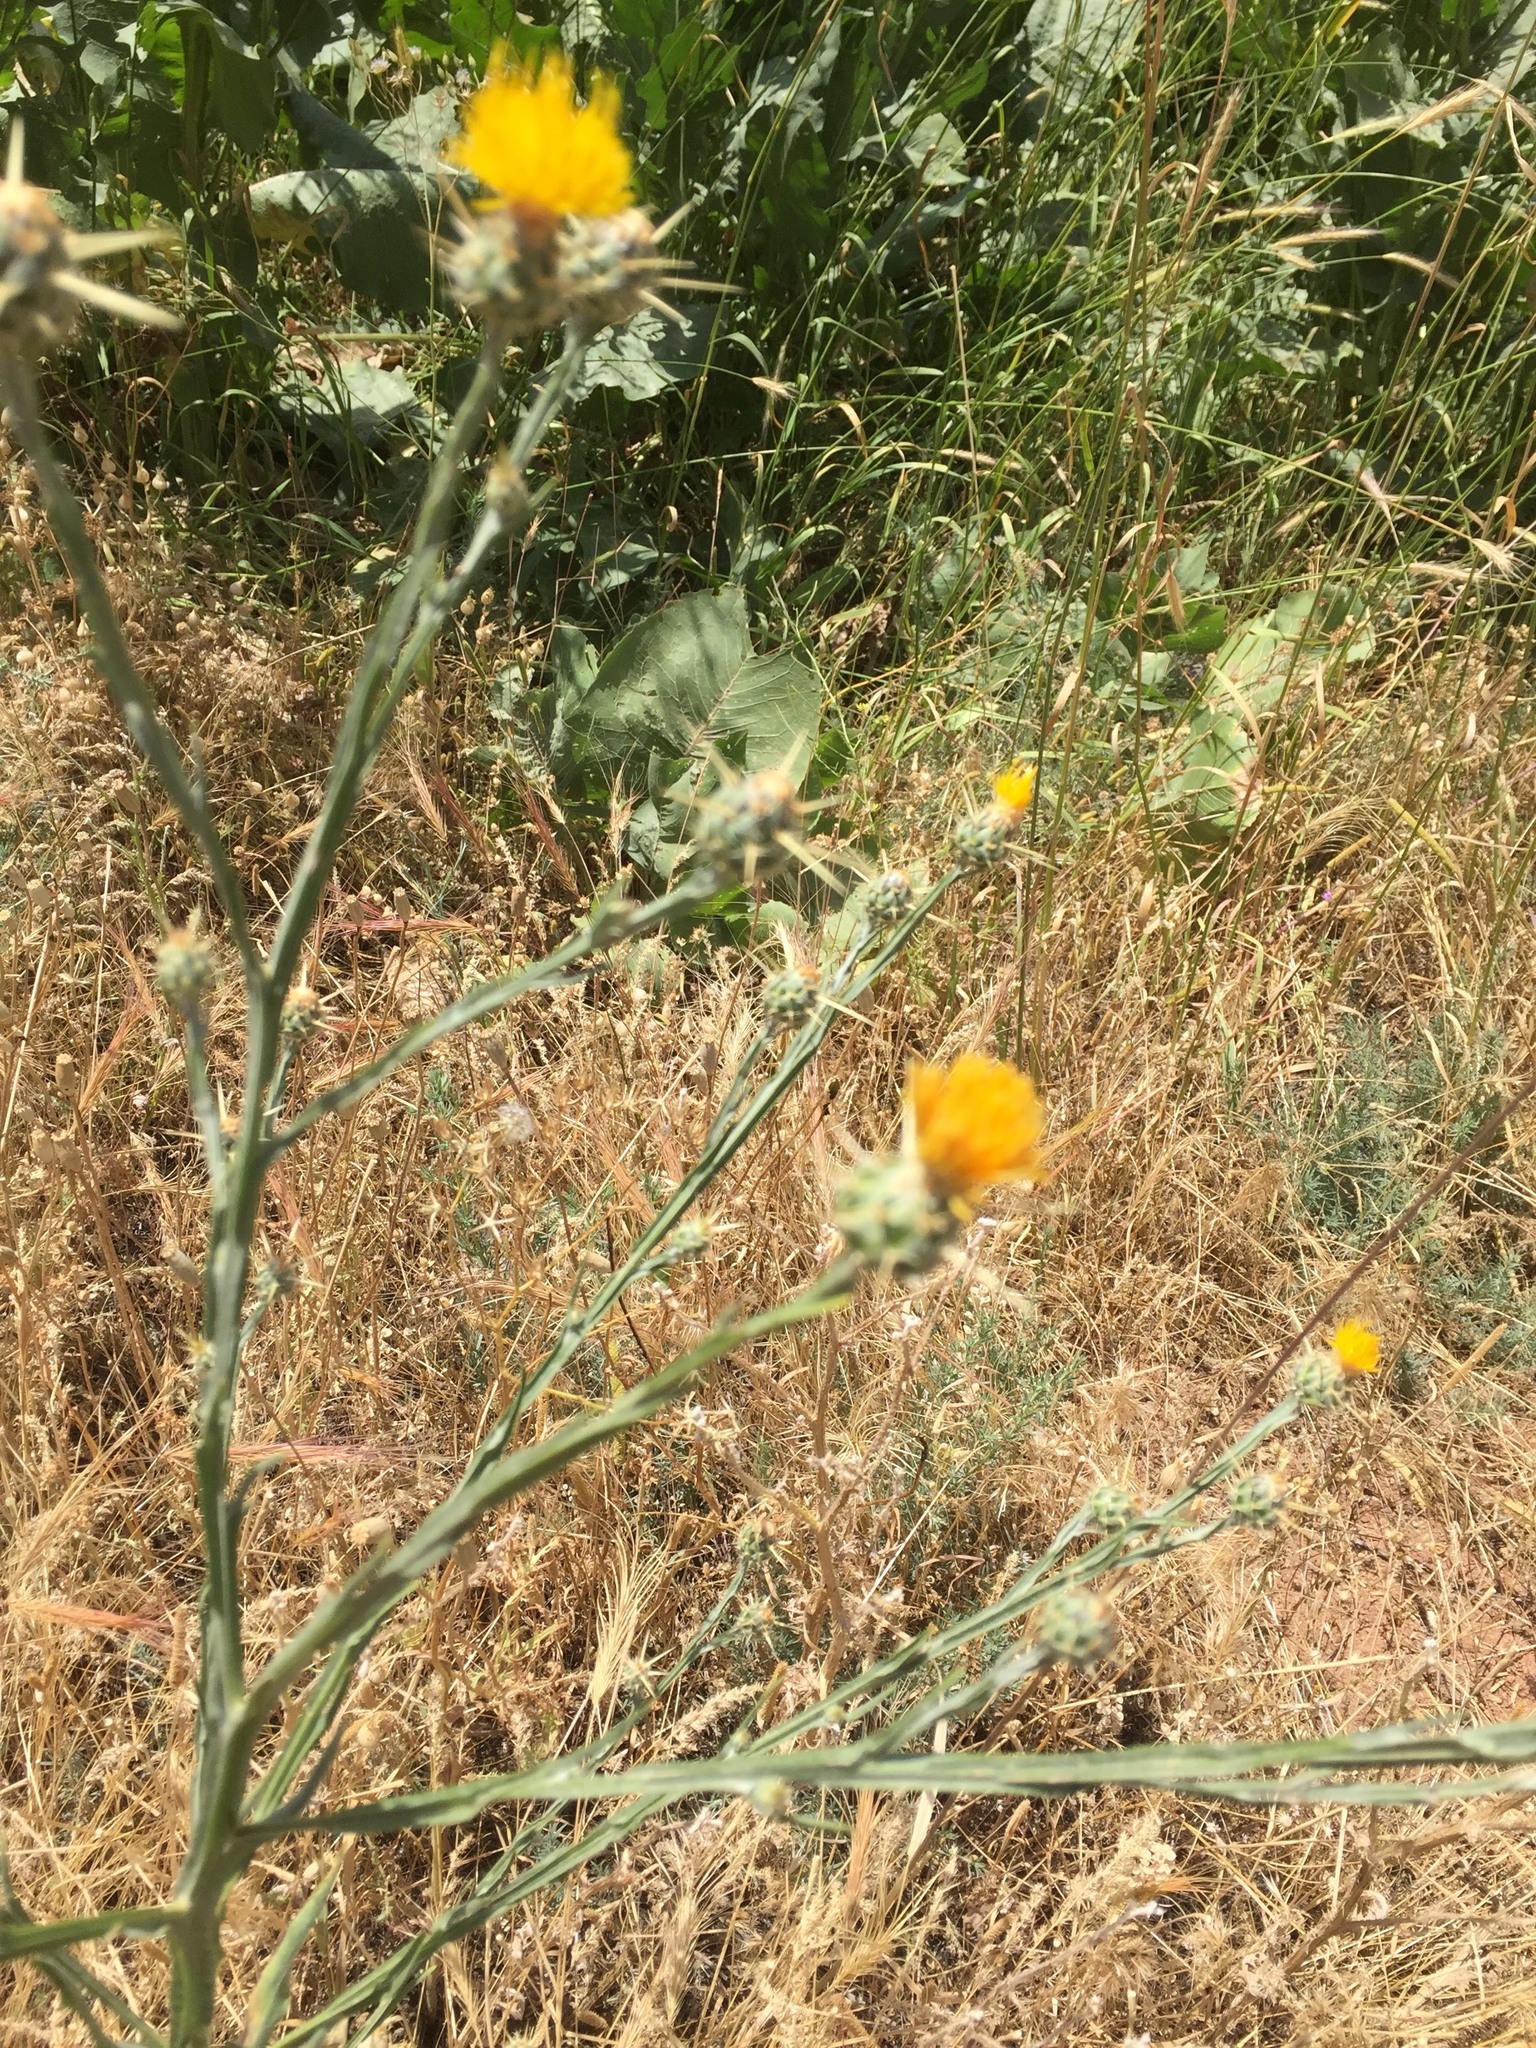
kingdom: Plantae
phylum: Tracheophyta
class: Magnoliopsida
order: Asterales
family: Asteraceae
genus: Centaurea
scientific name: Centaurea solstitialis
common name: Yellow star-thistle
